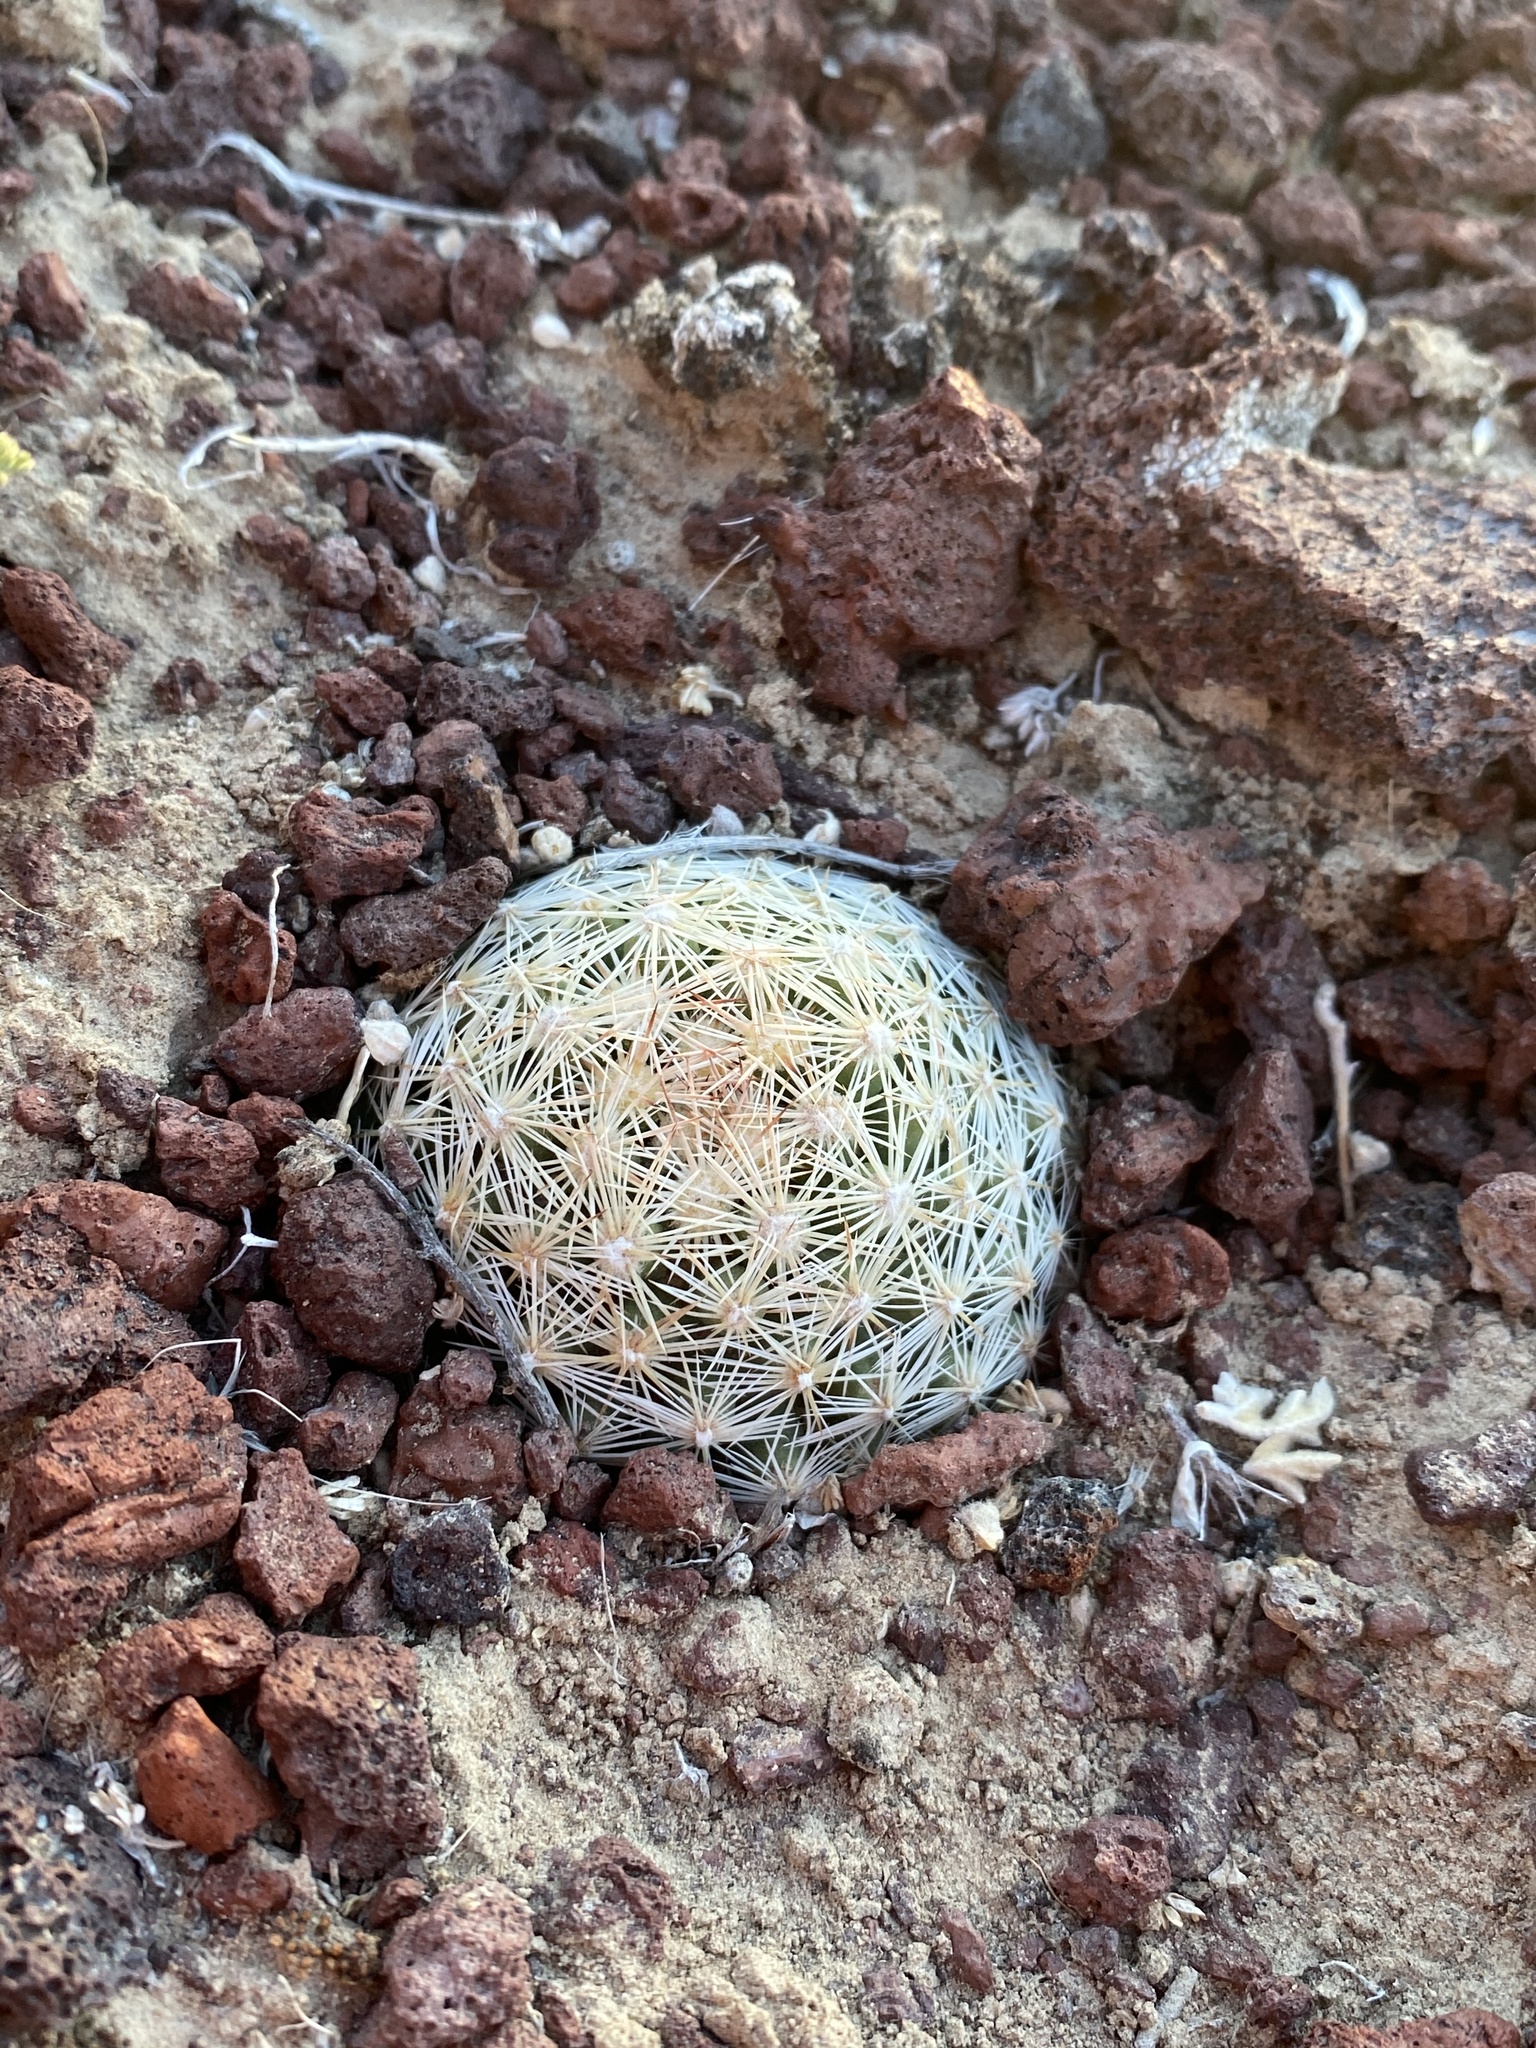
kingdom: Plantae
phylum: Tracheophyta
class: Magnoliopsida
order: Caryophyllales
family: Cactaceae
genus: Pelecyphora
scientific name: Pelecyphora vivipara
